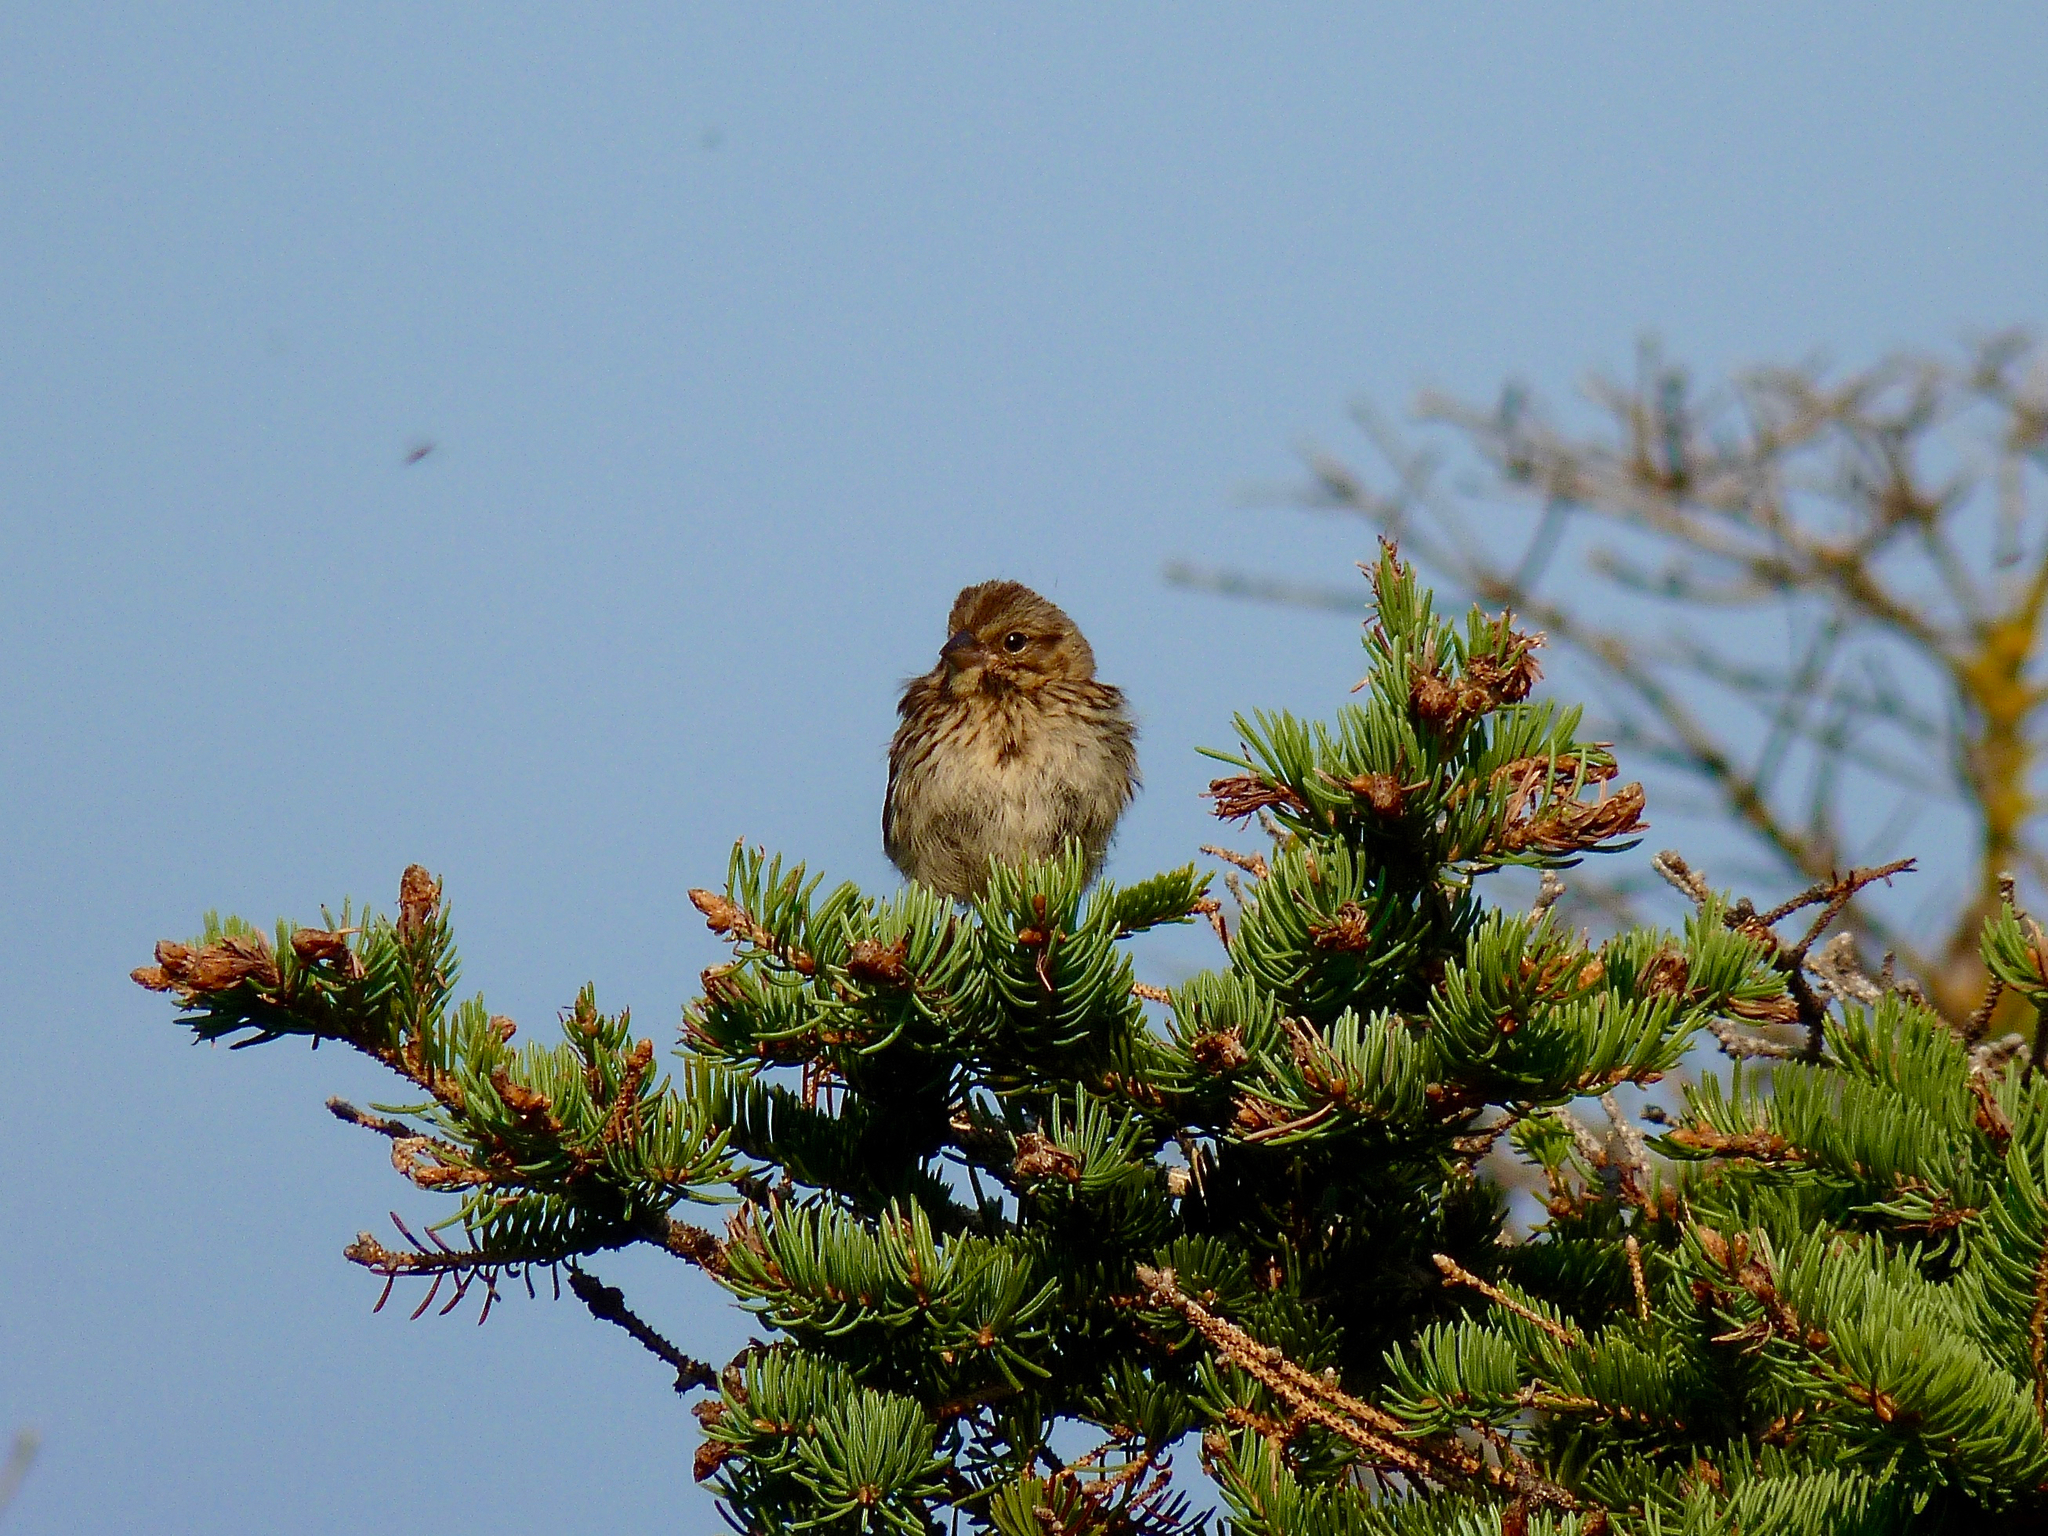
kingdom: Animalia
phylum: Chordata
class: Aves
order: Passeriformes
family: Passerellidae
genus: Melospiza
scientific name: Melospiza melodia
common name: Song sparrow
